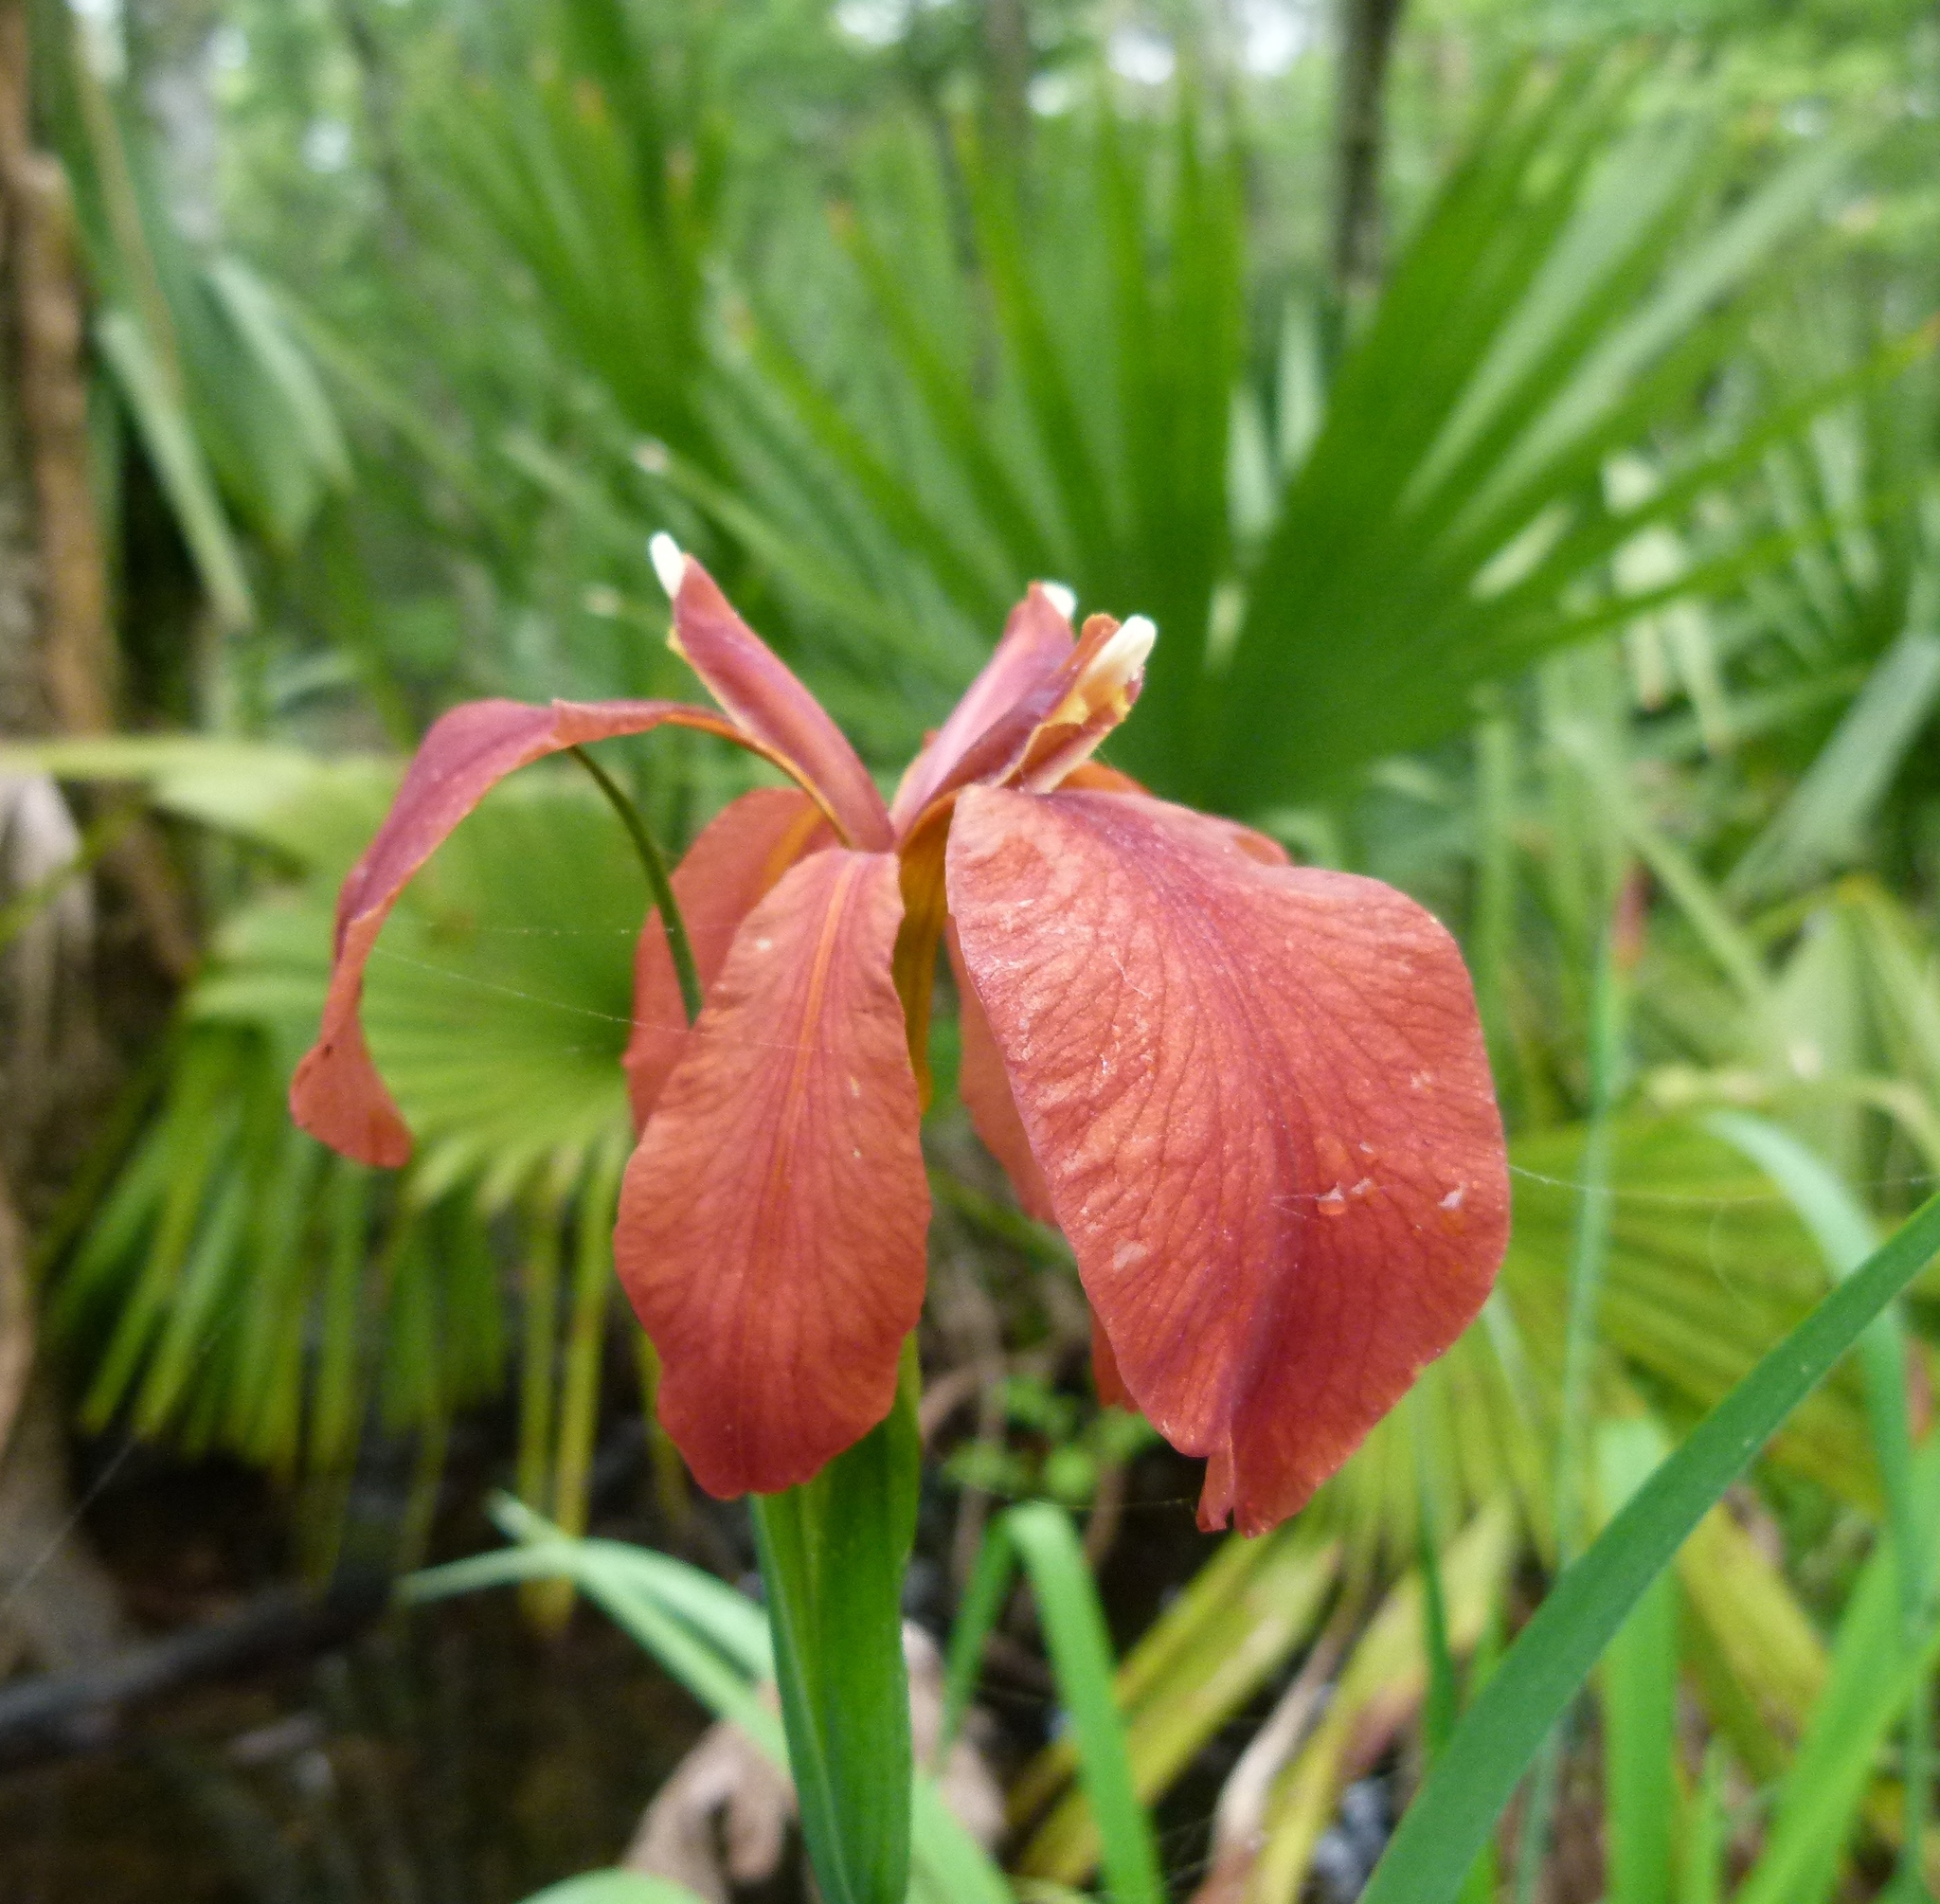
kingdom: Plantae
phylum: Tracheophyta
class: Liliopsida
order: Asparagales
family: Iridaceae
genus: Iris
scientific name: Iris fulva
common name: Copper iris
